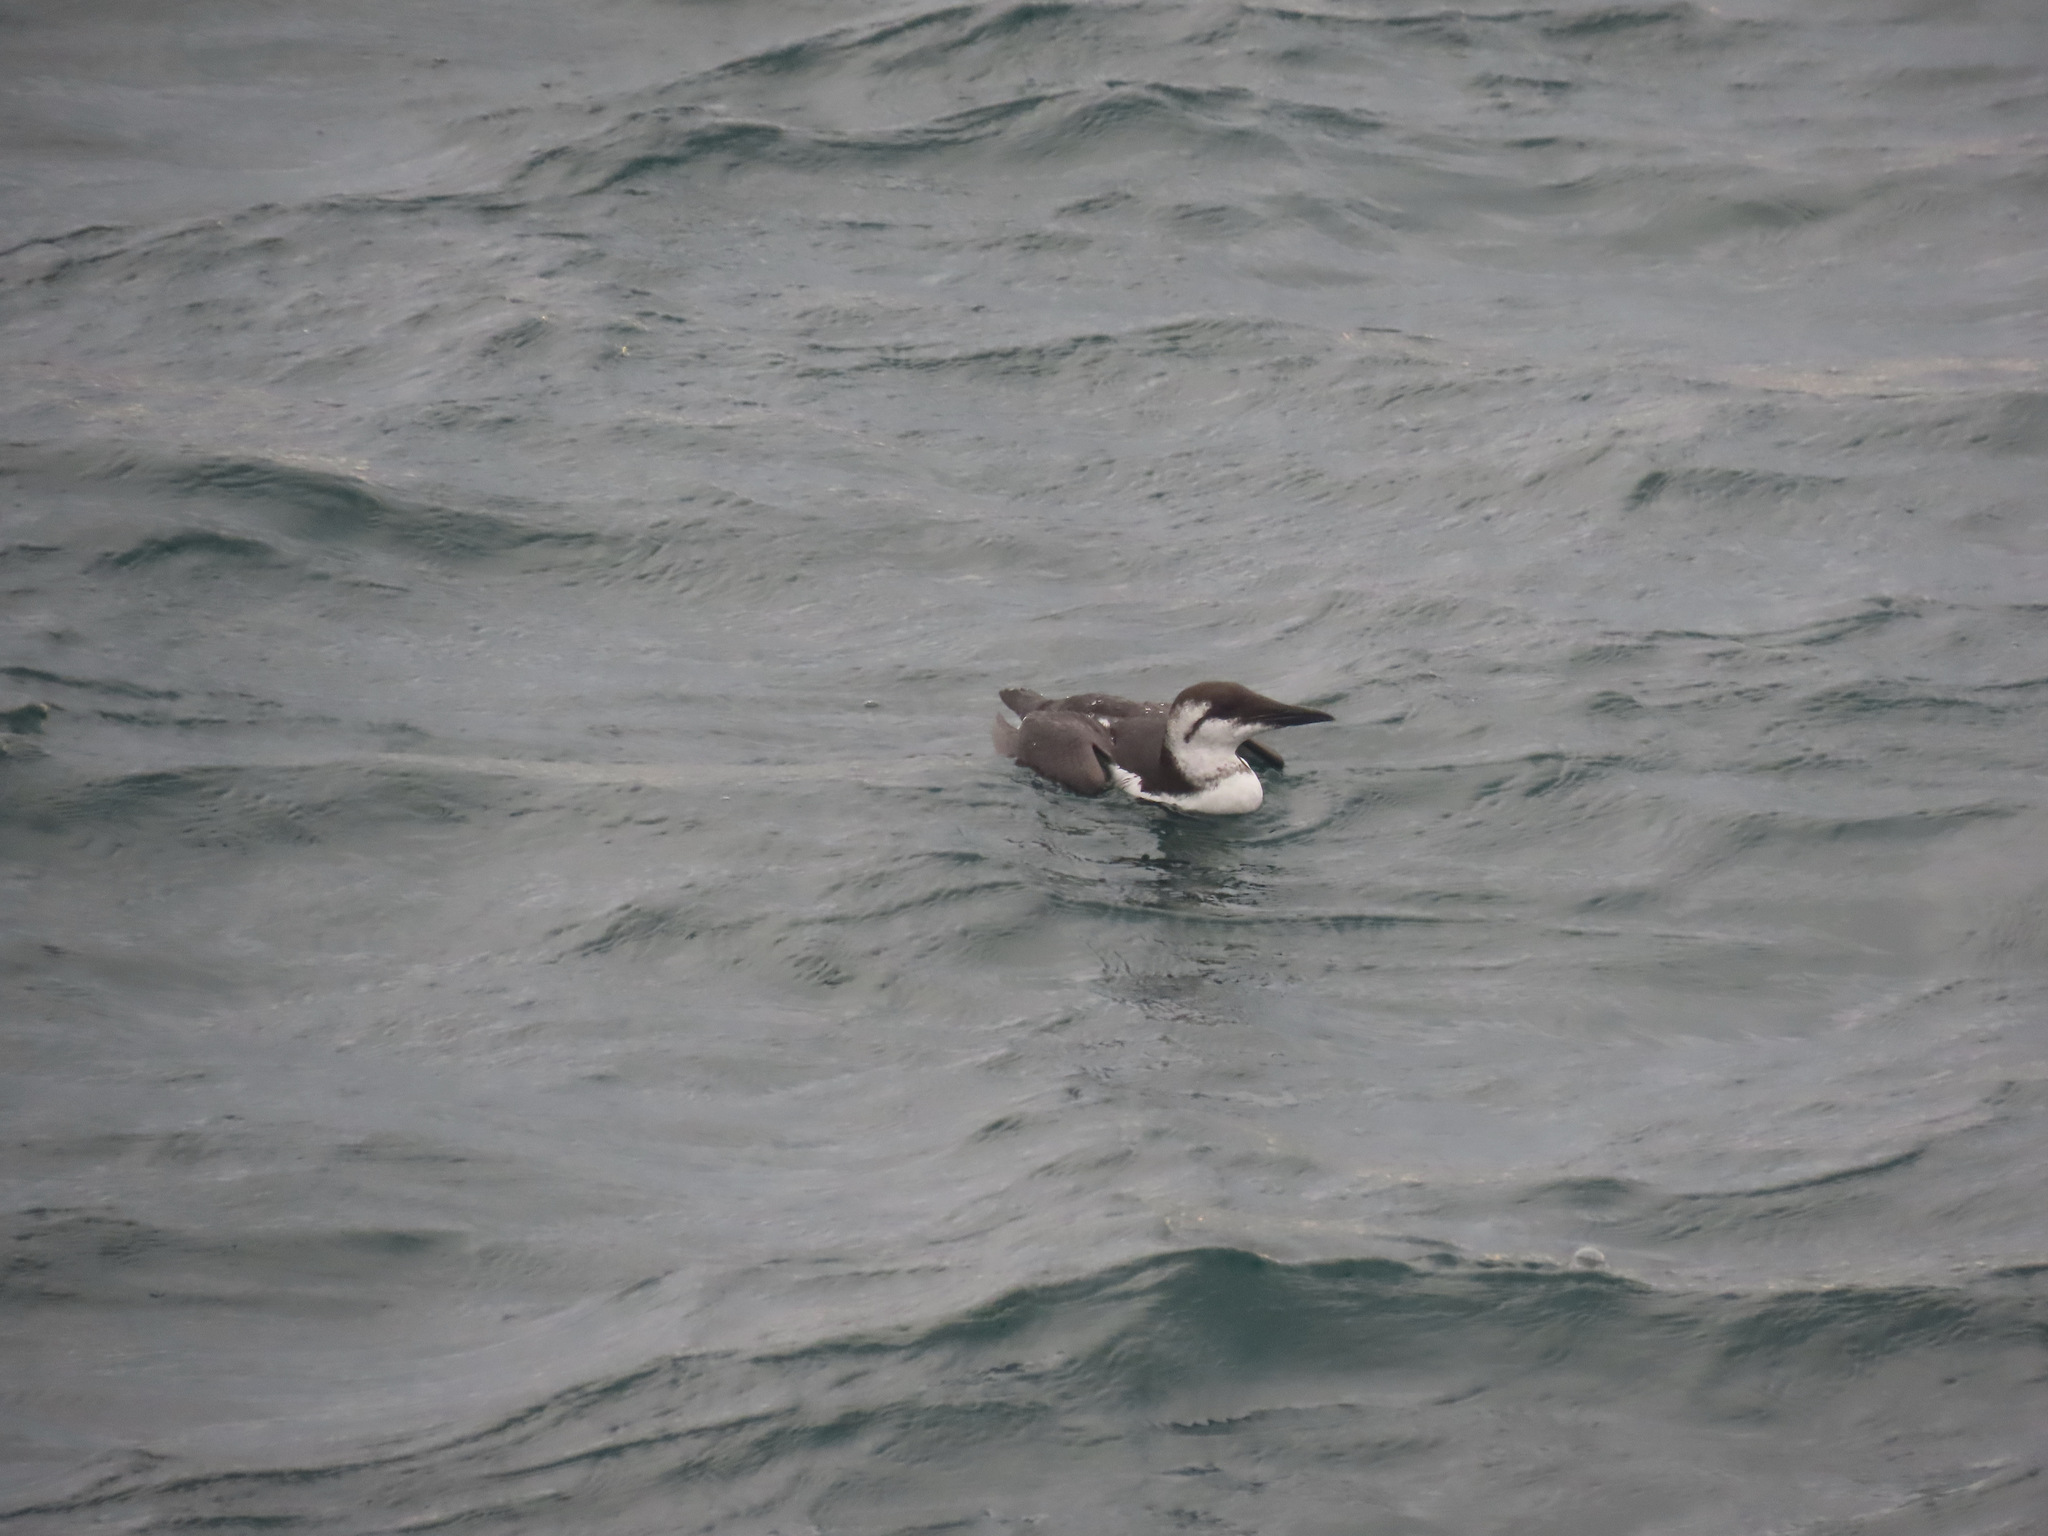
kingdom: Animalia
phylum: Chordata
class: Aves
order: Charadriiformes
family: Alcidae
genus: Uria
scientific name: Uria aalge
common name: Common murre
